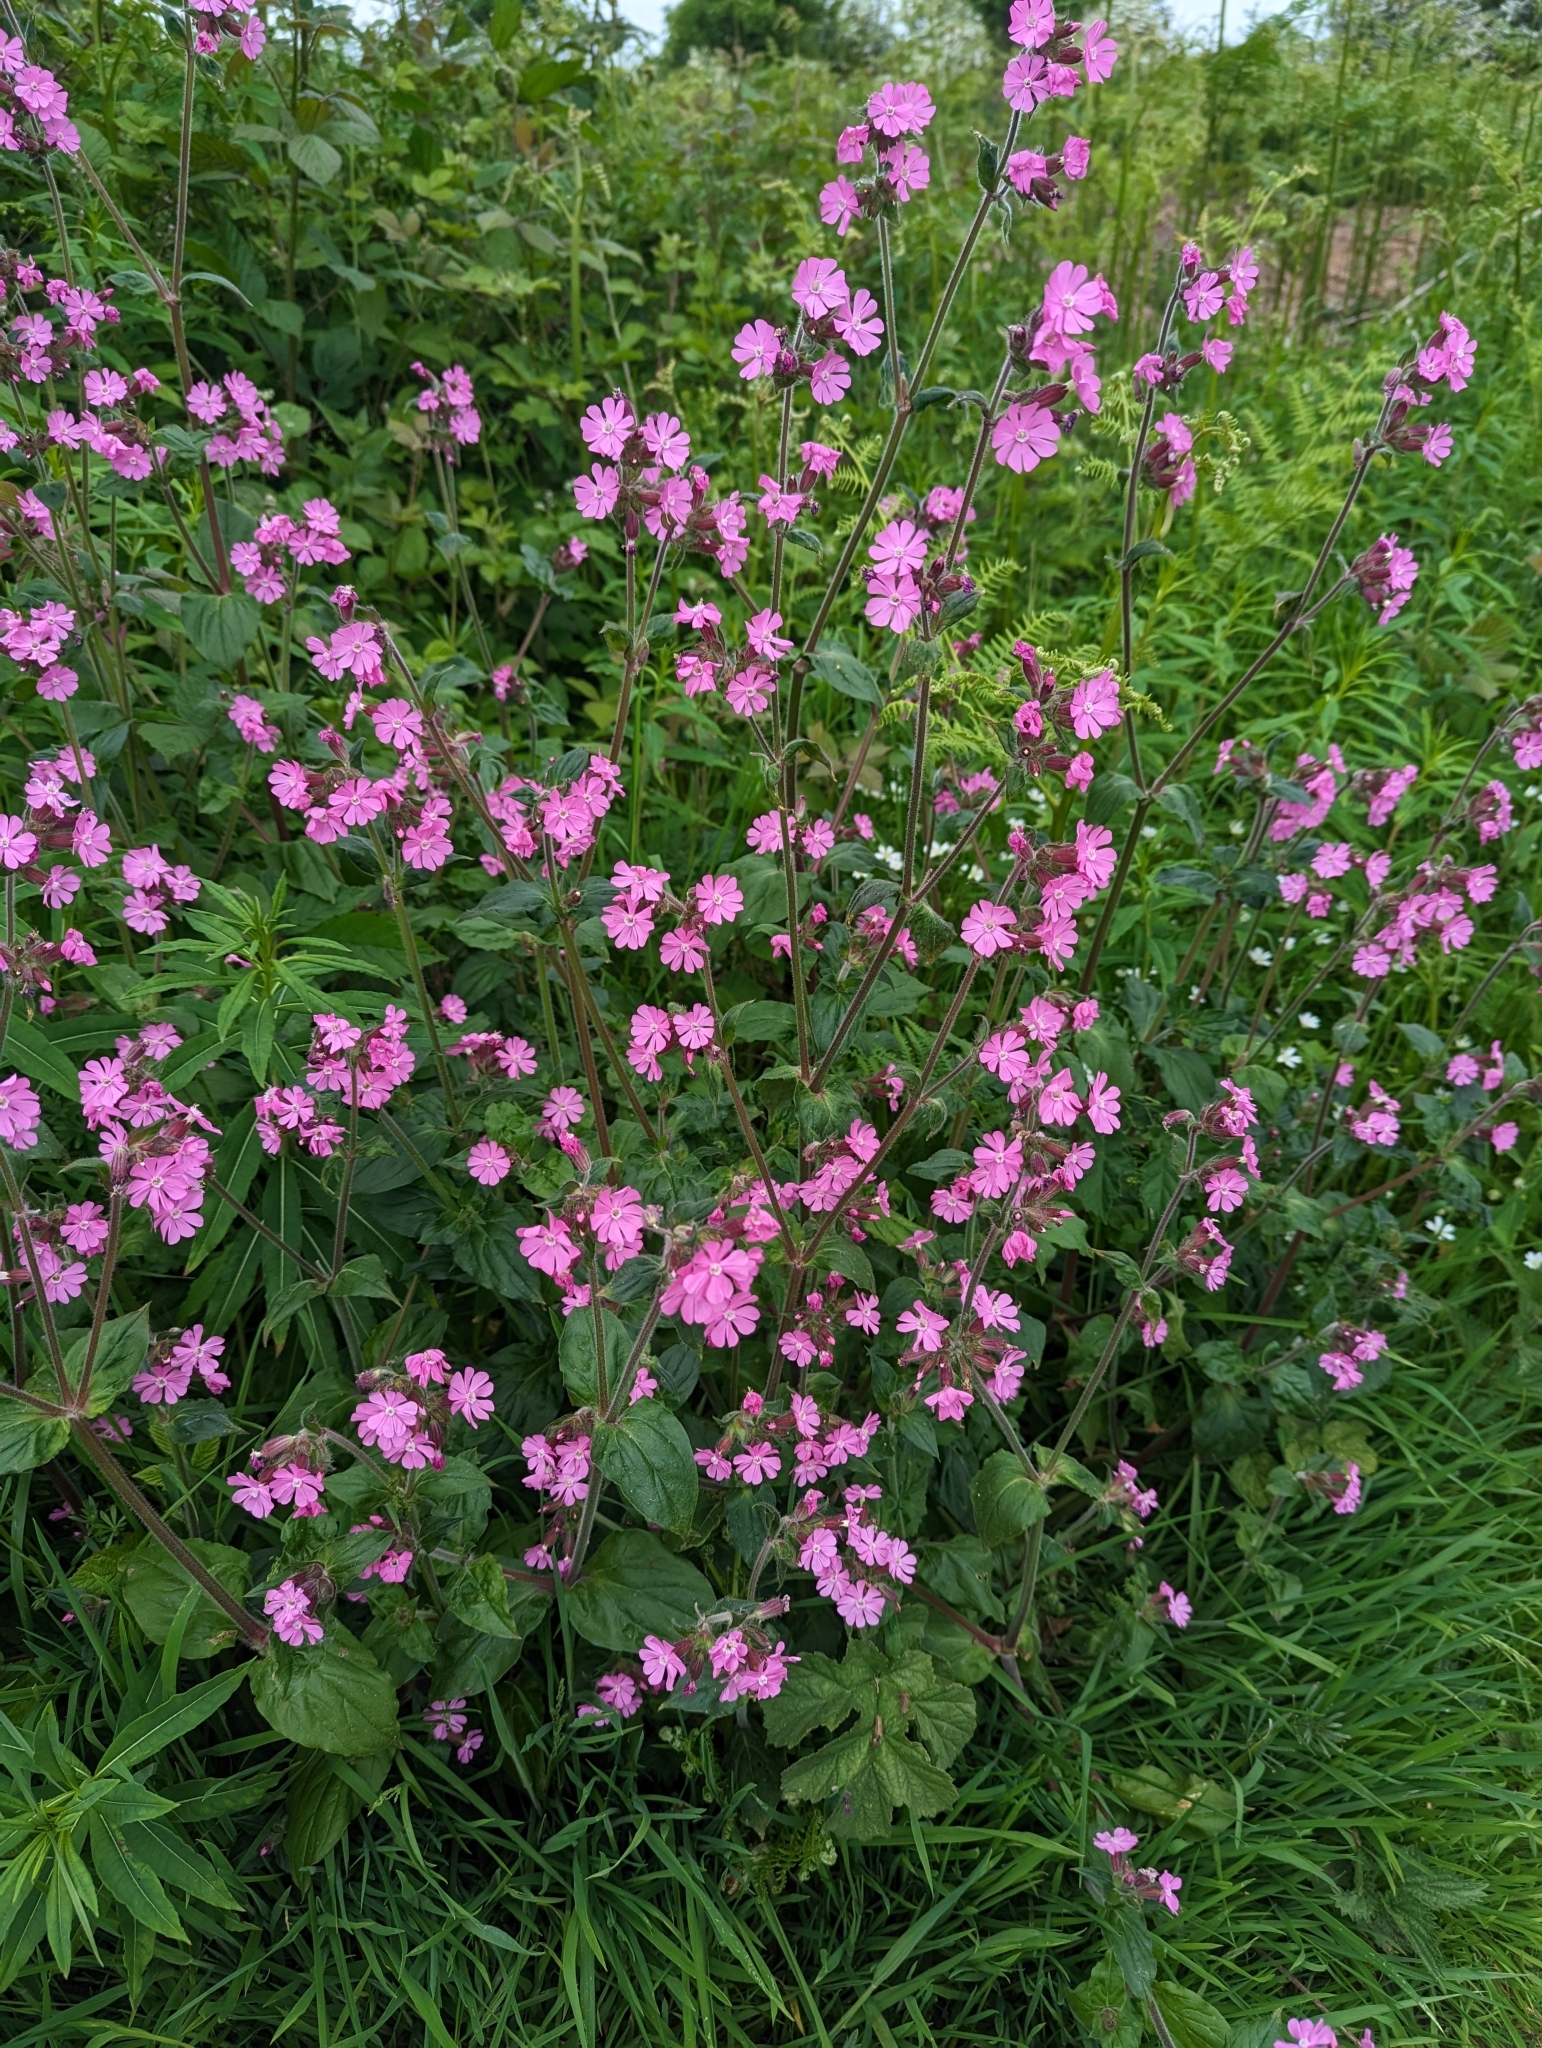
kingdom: Plantae
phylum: Tracheophyta
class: Magnoliopsida
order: Caryophyllales
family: Caryophyllaceae
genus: Silene
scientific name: Silene dioica
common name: Red campion
